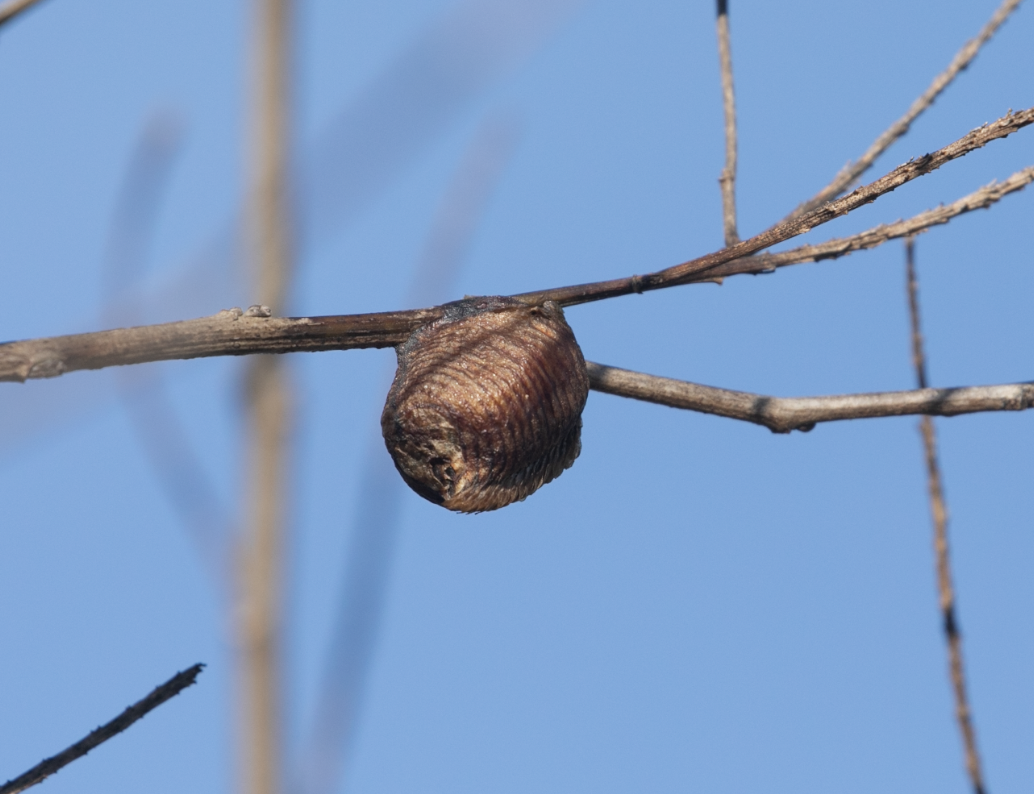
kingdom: Animalia
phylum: Arthropoda
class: Insecta
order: Mantodea
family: Mantidae
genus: Hierodula
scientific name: Hierodula transcaucasica
